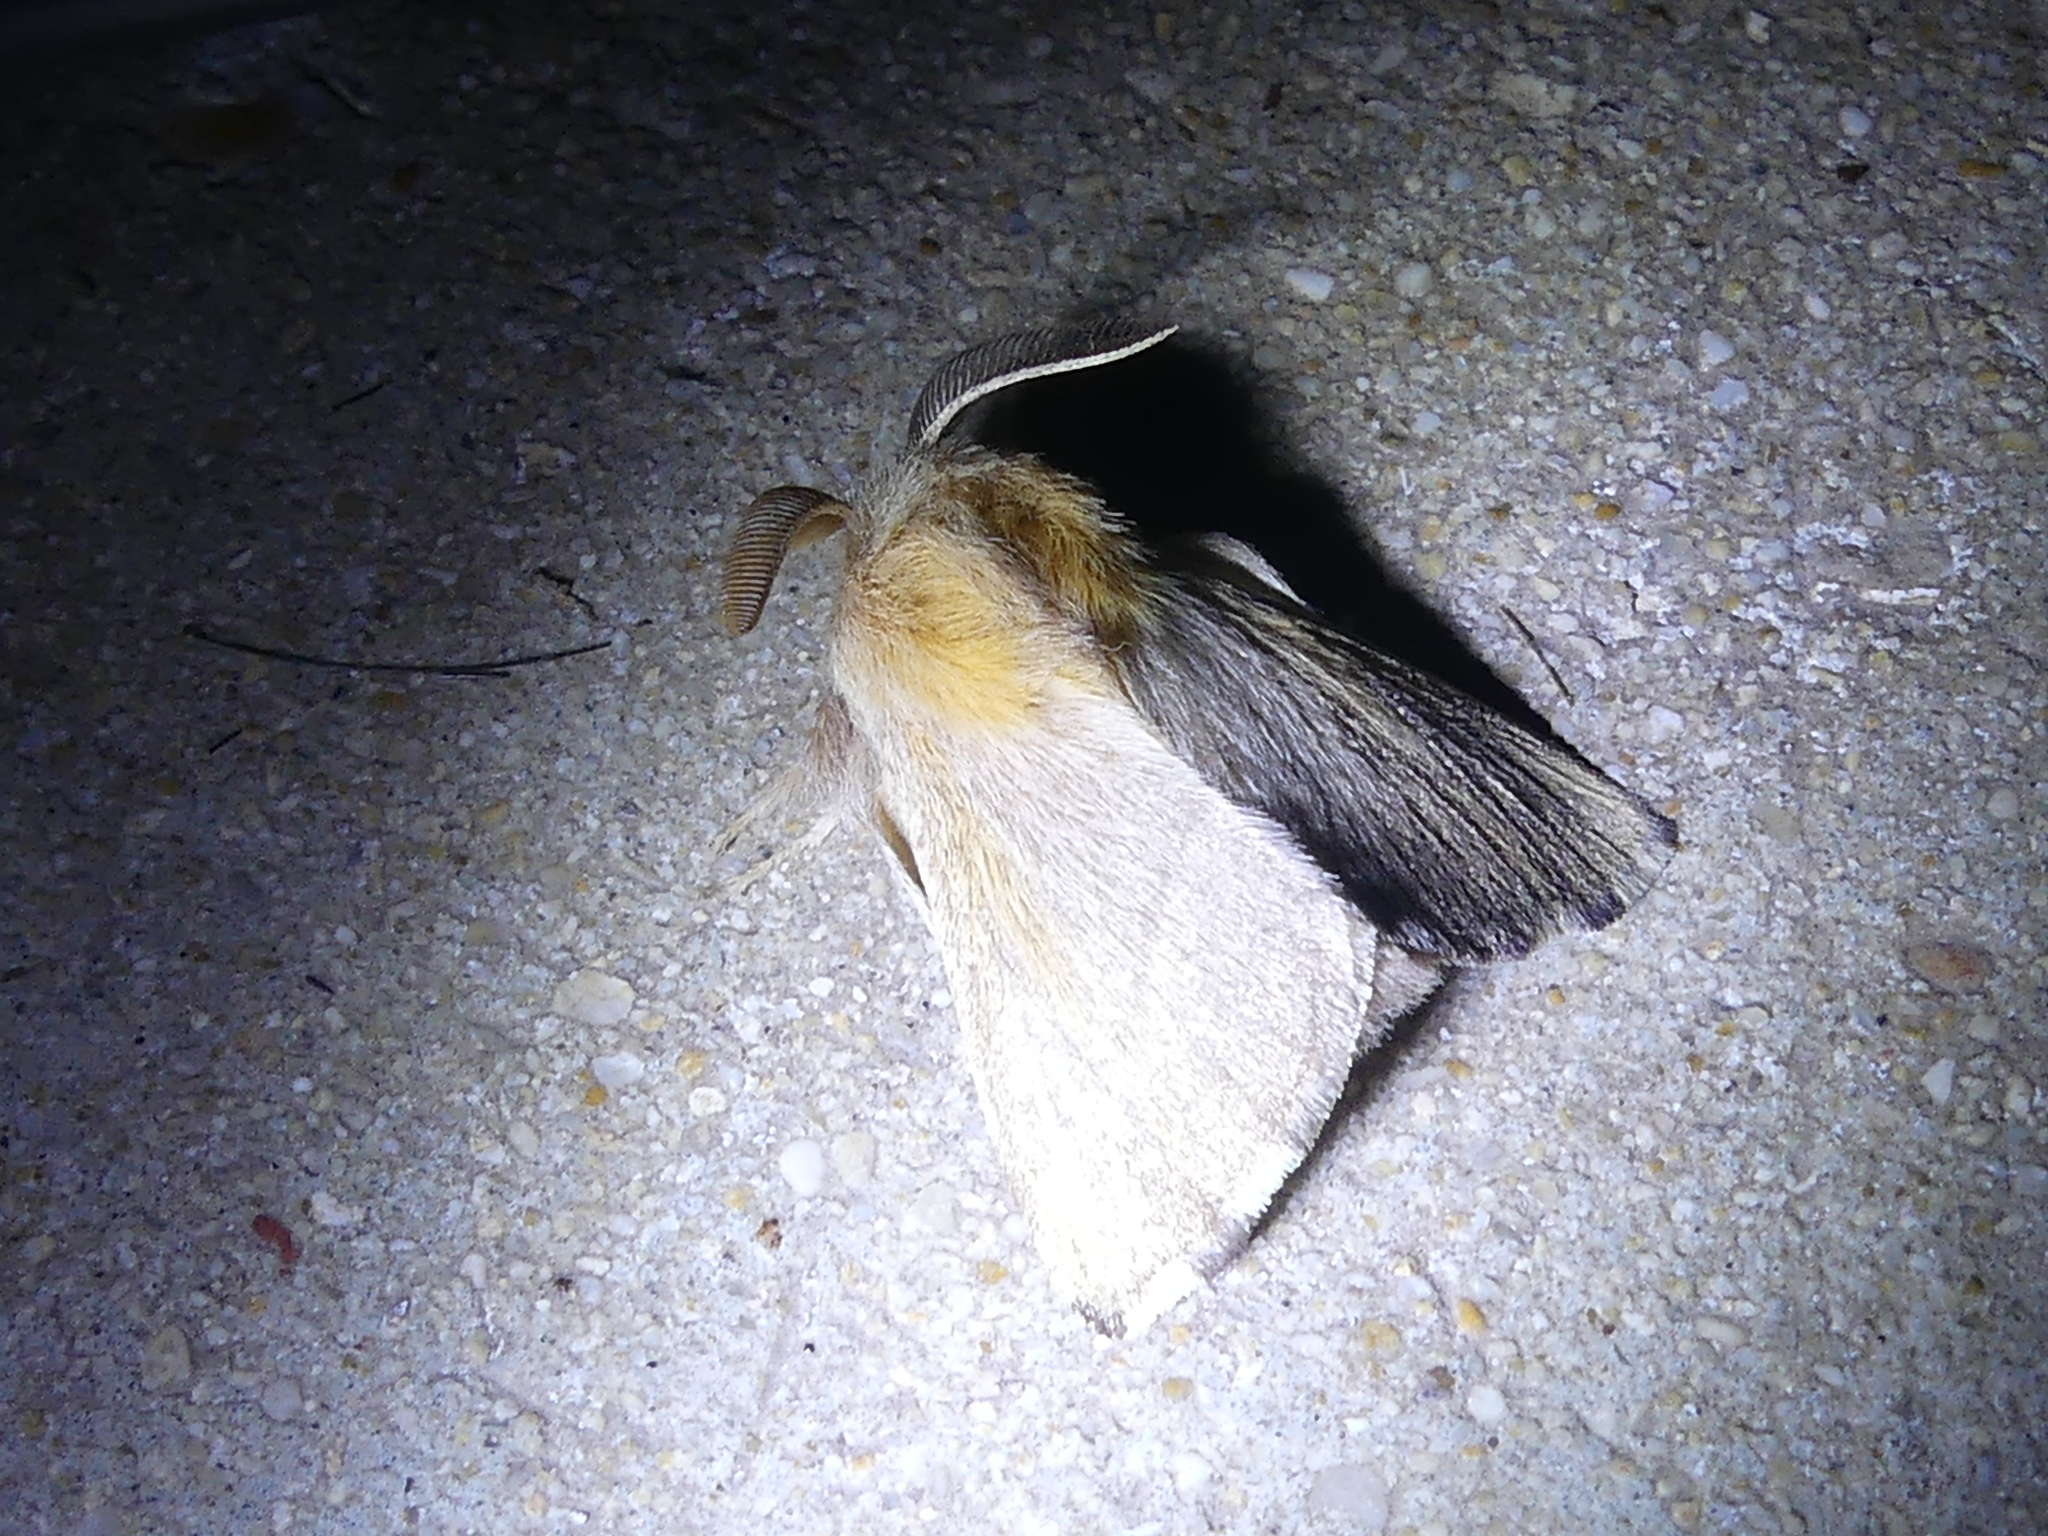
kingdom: Animalia
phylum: Arthropoda
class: Insecta
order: Lepidoptera
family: Lasiocampidae
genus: Malacosoma
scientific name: Malacosoma disstria
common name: Forest tent caterpillar
